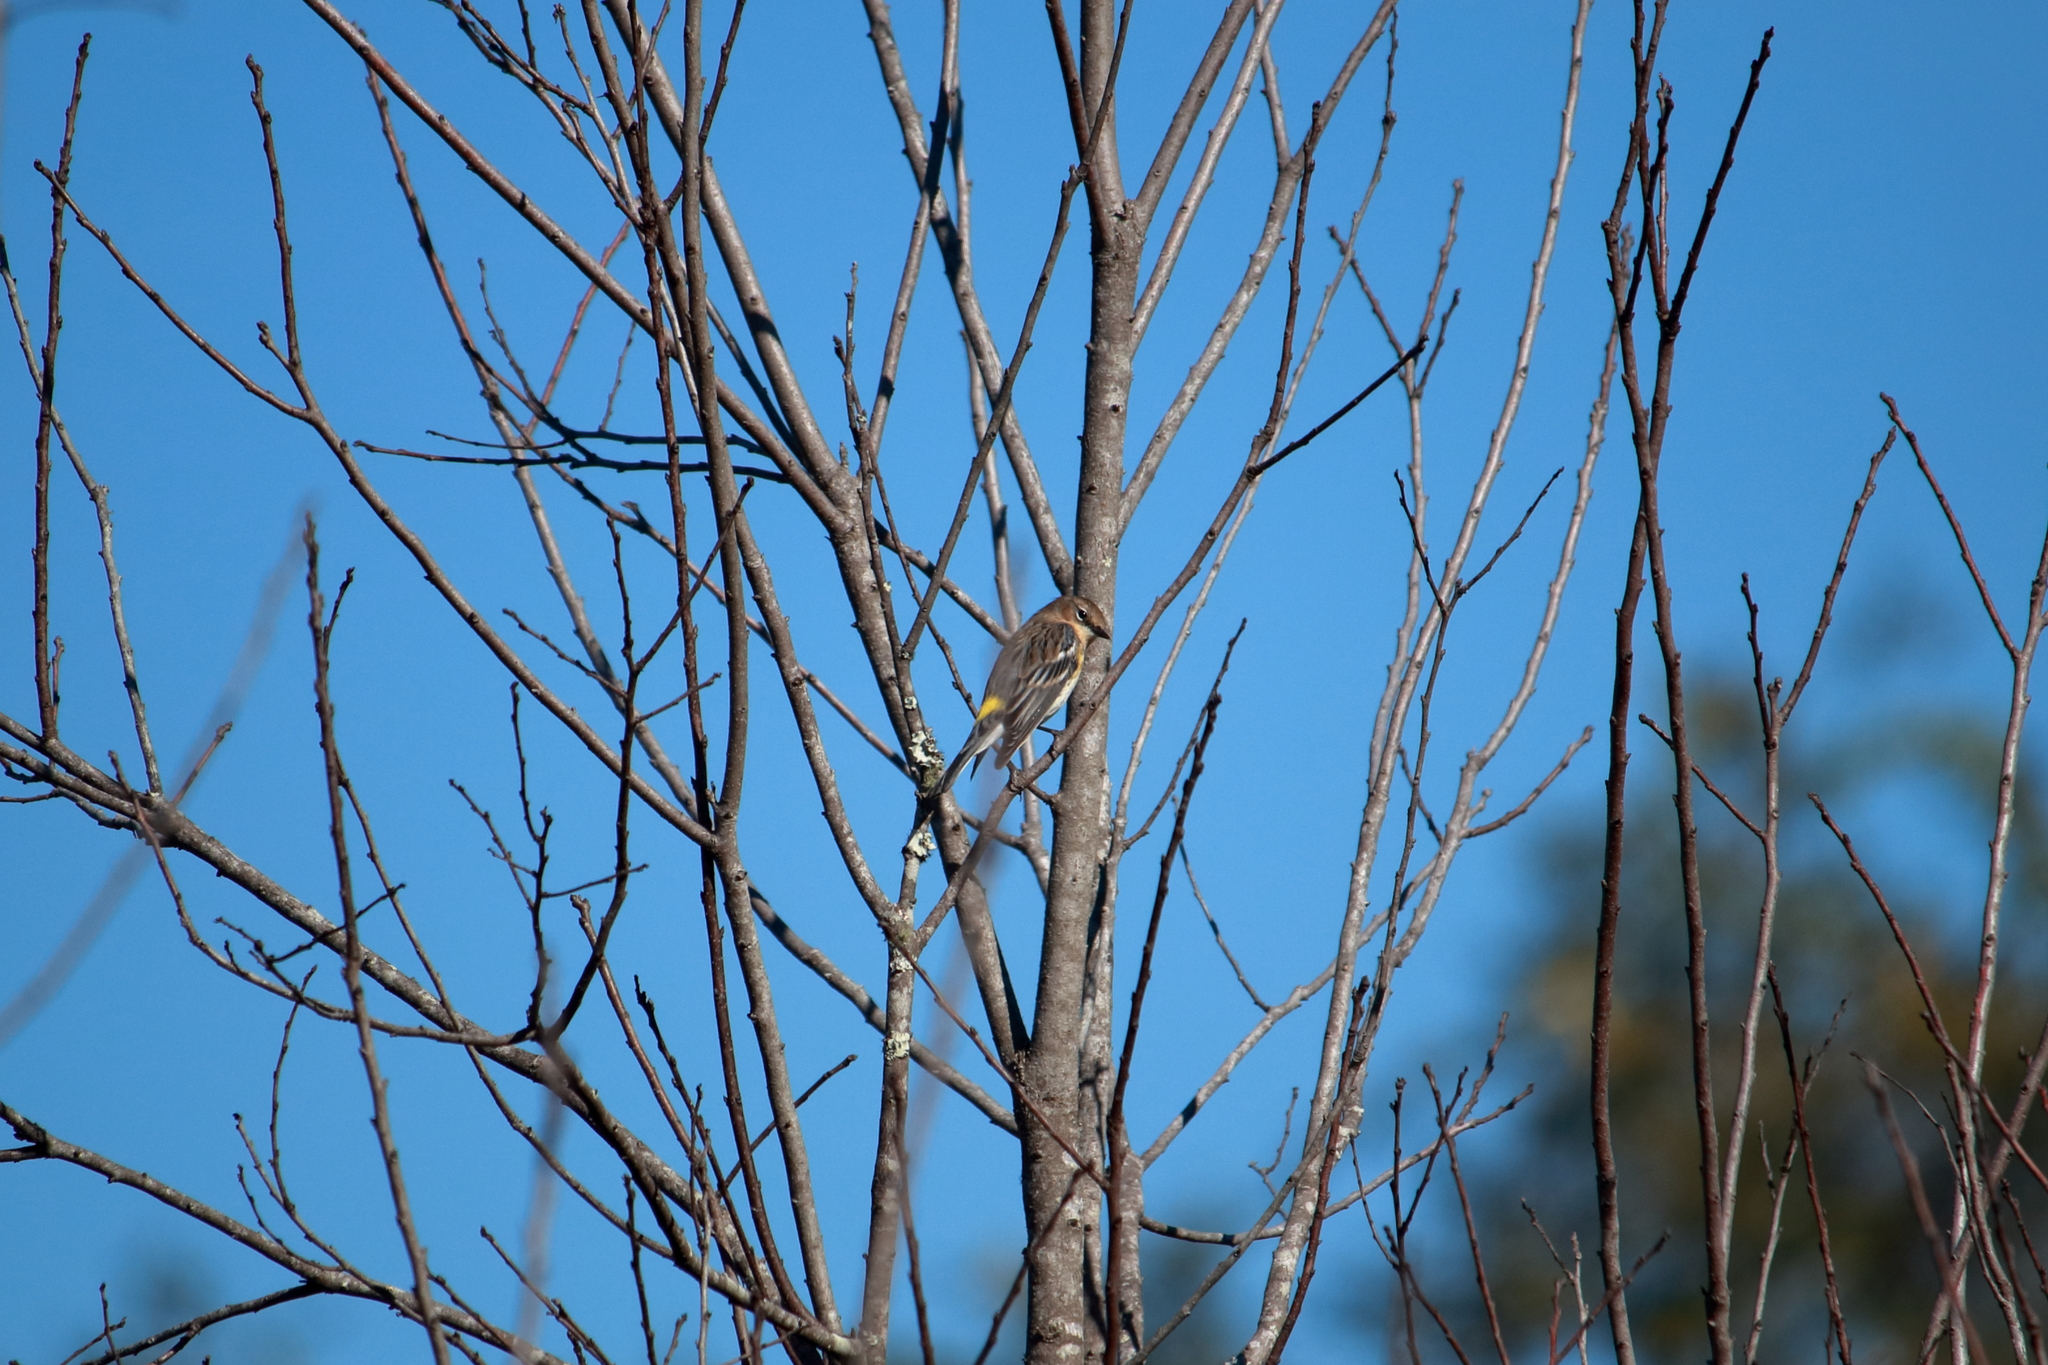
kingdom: Animalia
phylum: Chordata
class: Aves
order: Passeriformes
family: Parulidae
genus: Setophaga
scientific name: Setophaga coronata
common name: Myrtle warbler
